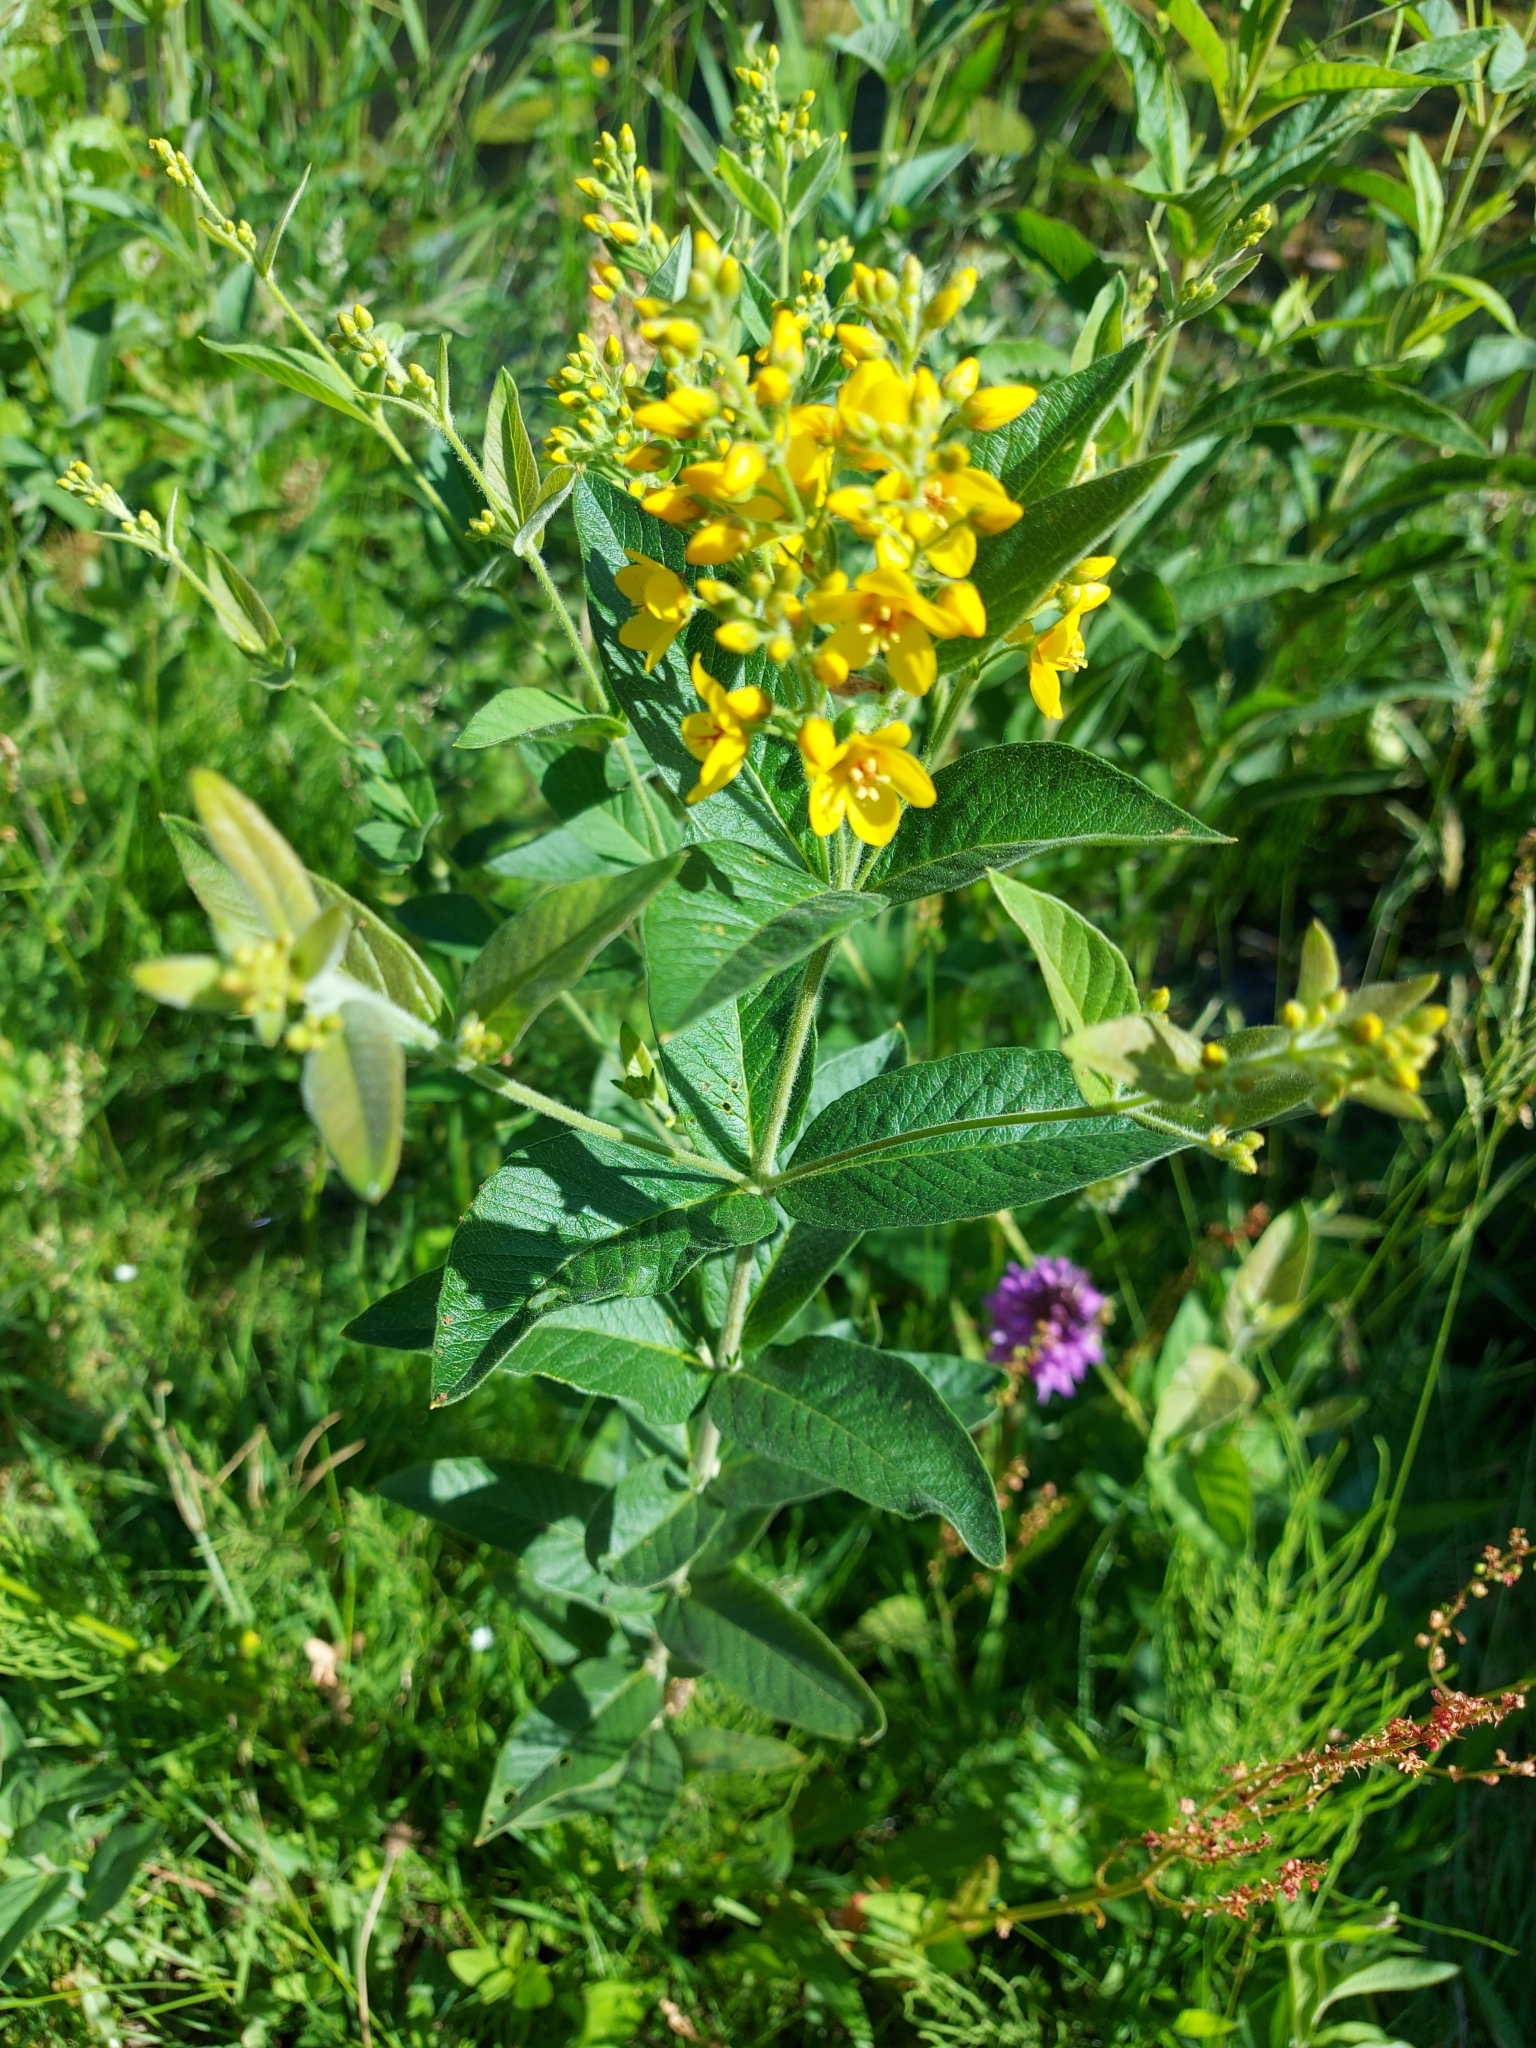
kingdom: Plantae
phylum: Tracheophyta
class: Magnoliopsida
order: Ericales
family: Primulaceae
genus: Lysimachia
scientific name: Lysimachia vulgaris
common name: Yellow loosestrife
